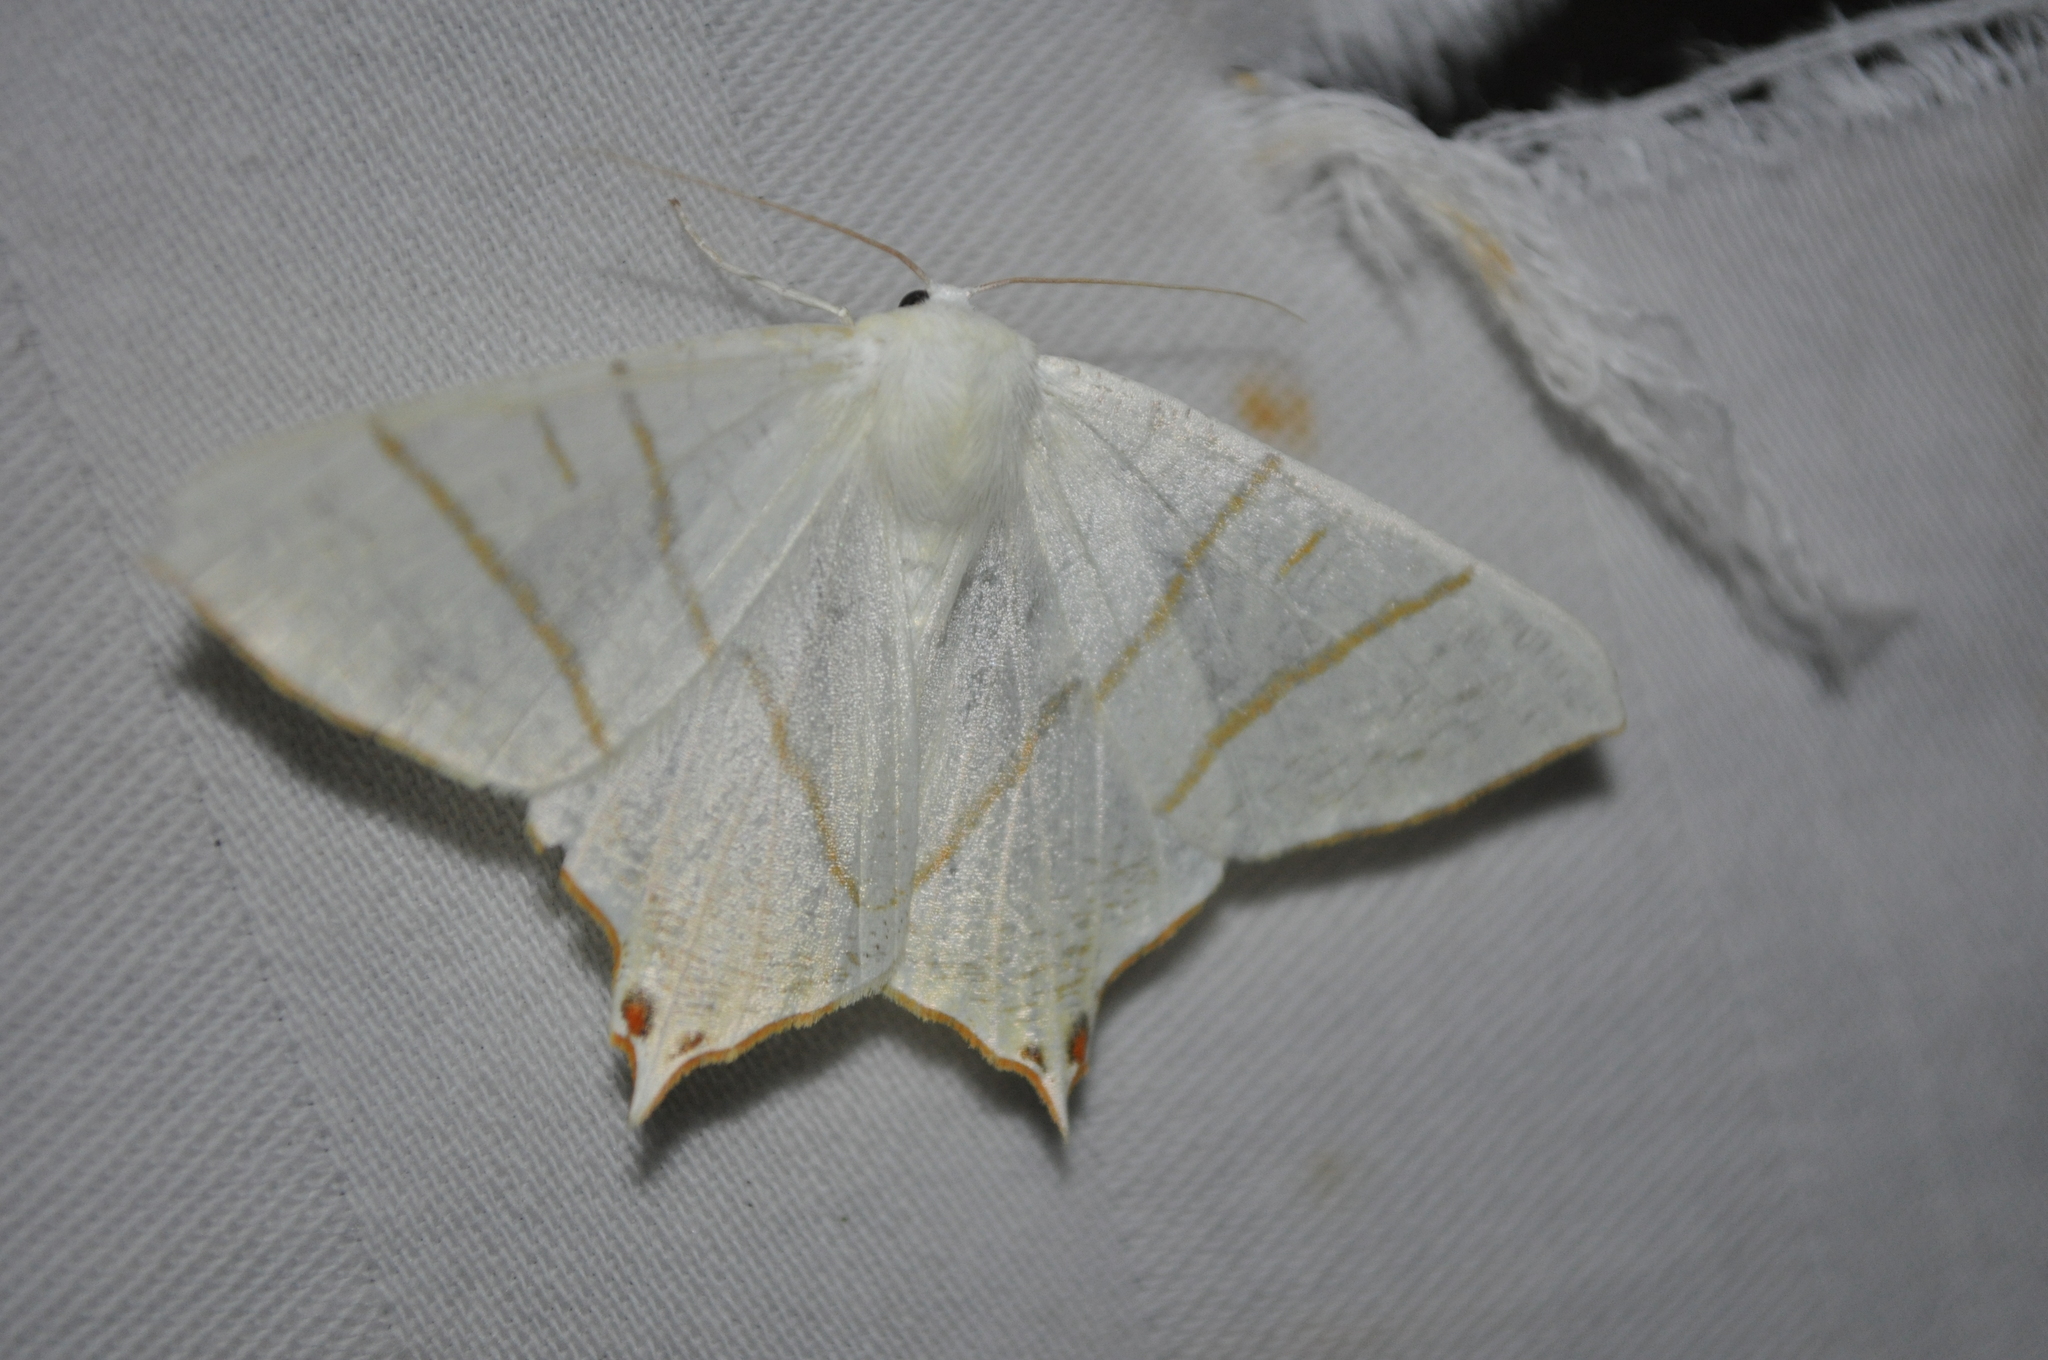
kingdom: Animalia
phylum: Arthropoda
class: Insecta
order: Lepidoptera
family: Geometridae
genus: Ourapteryx
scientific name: Ourapteryx sambucaria
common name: Swallow-tailed moth
